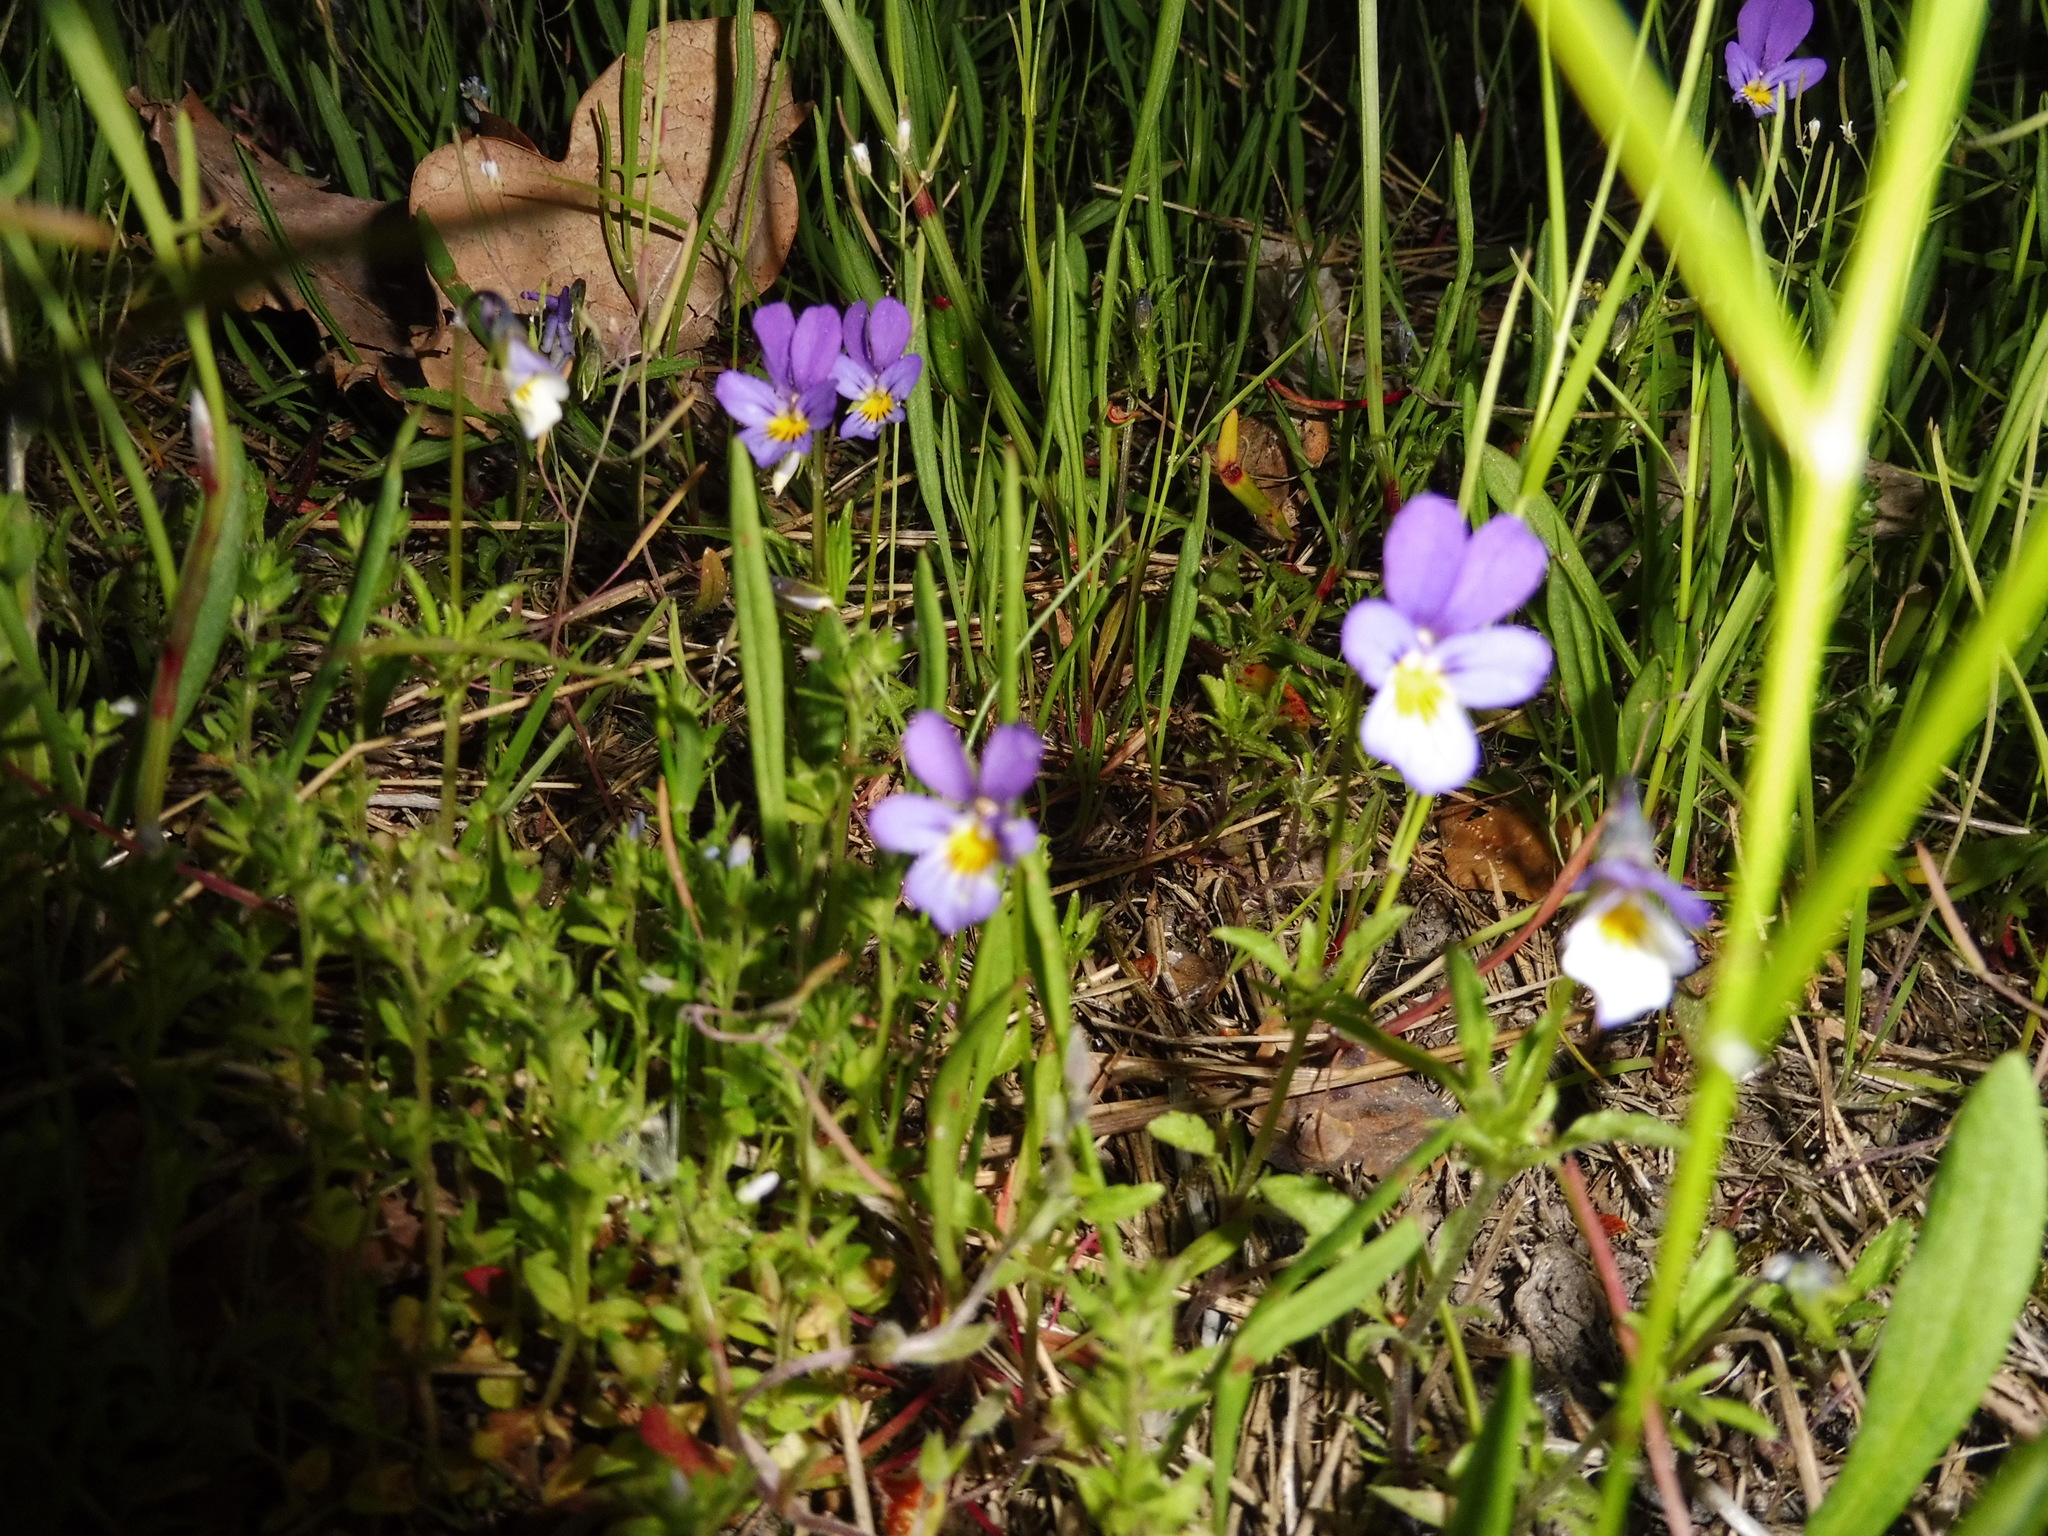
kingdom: Plantae
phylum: Tracheophyta
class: Magnoliopsida
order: Malpighiales
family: Violaceae
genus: Viola
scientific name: Viola tricolor
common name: Pansy
